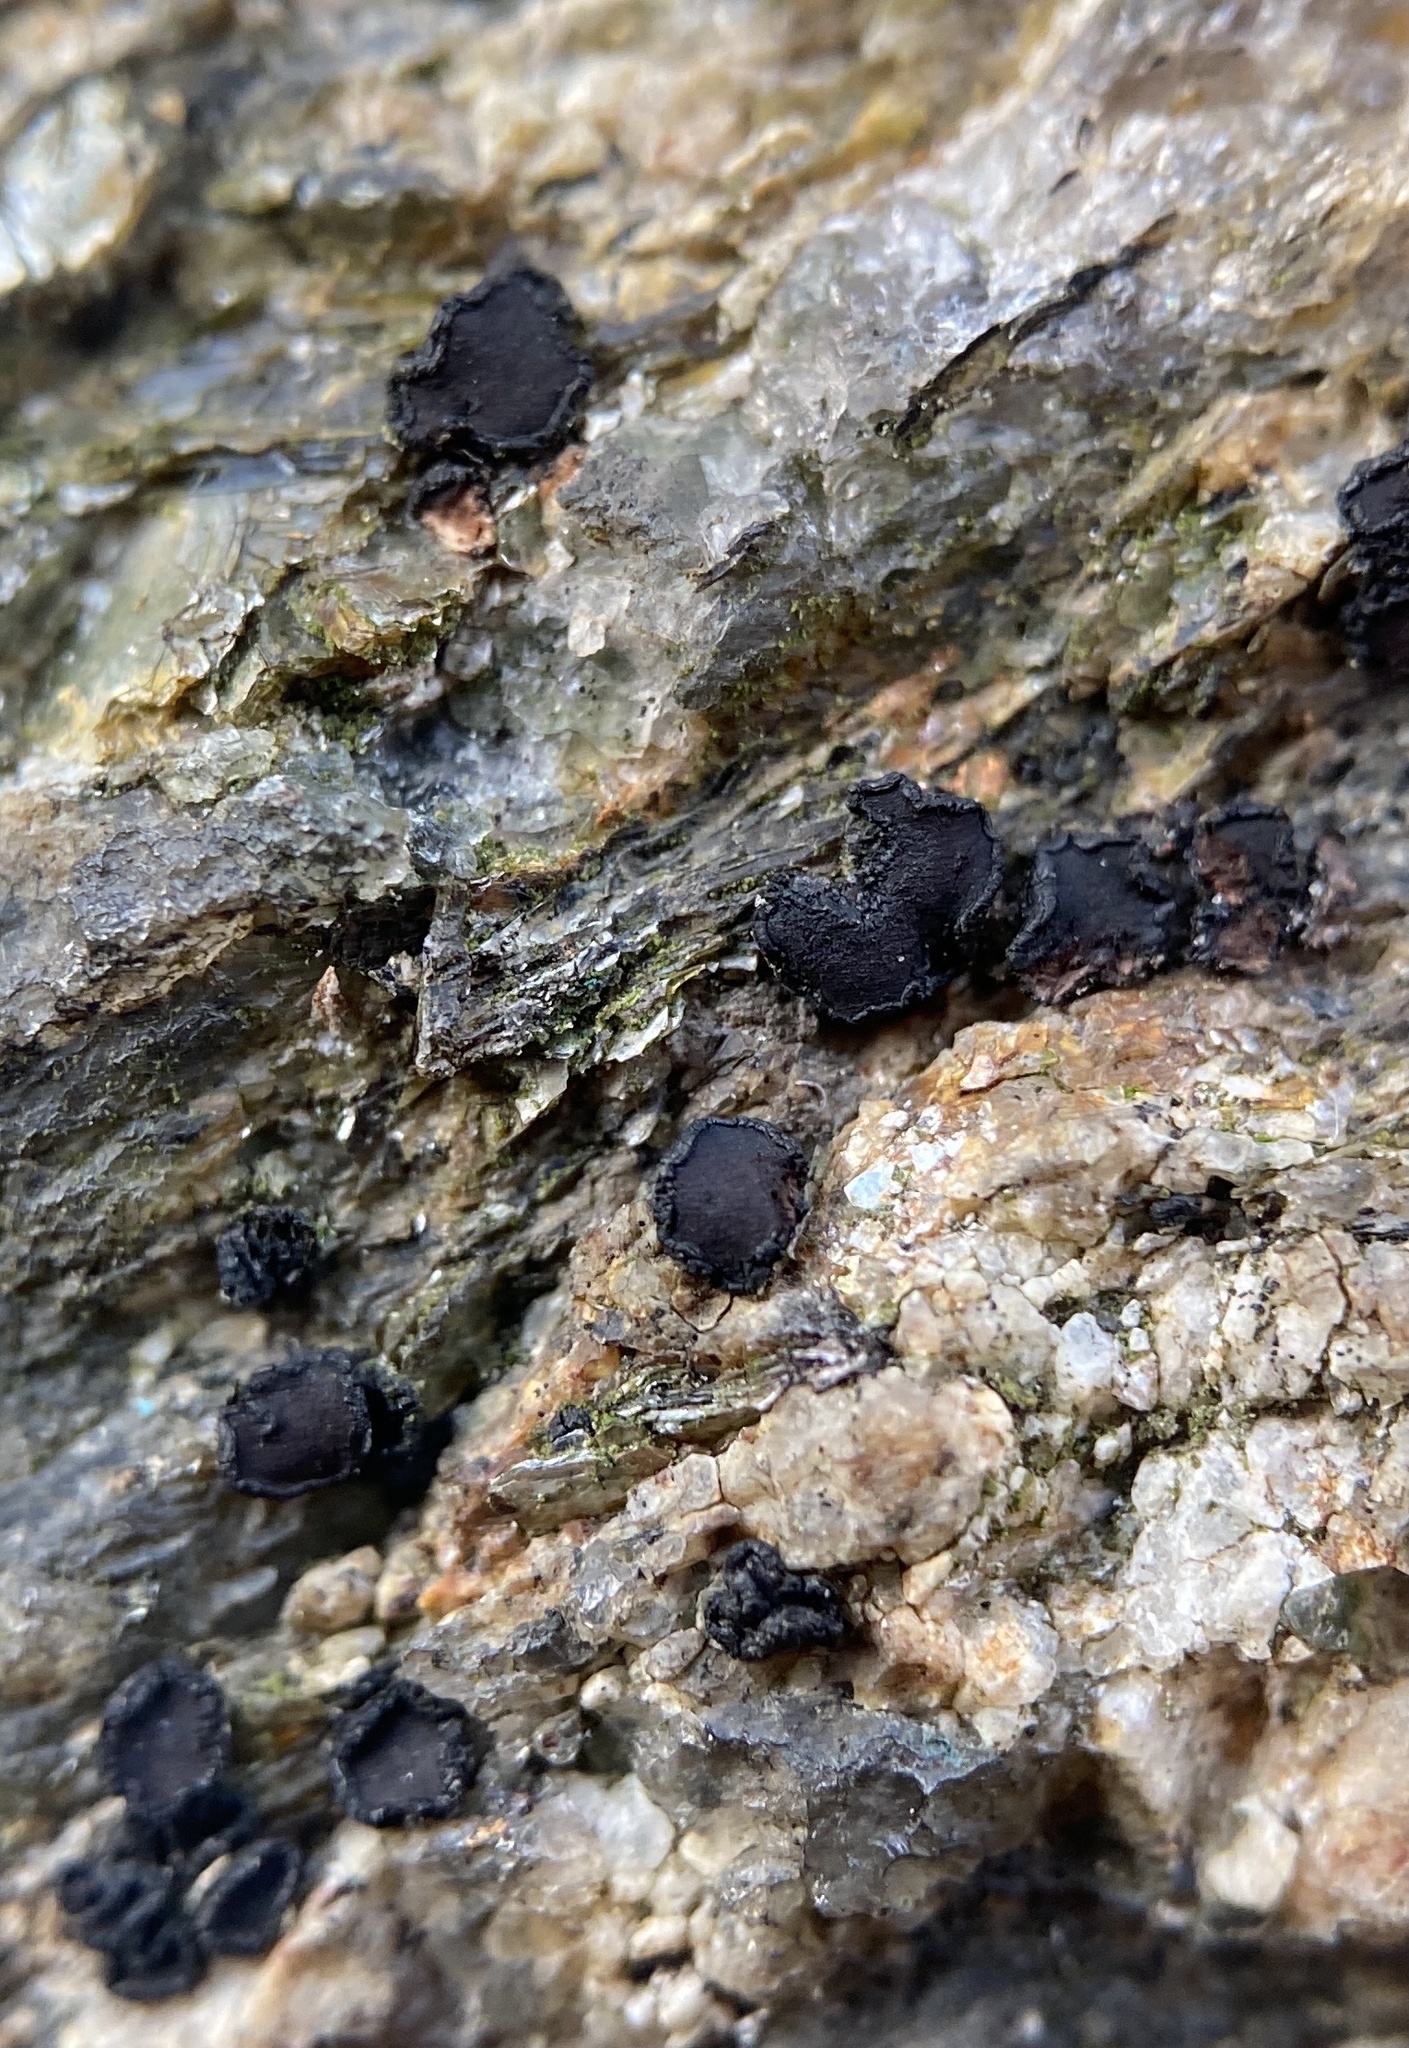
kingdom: Fungi
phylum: Ascomycota
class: Lecanoromycetes
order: Acarosporales
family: Acarosporaceae
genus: Sarcogyne
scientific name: Sarcogyne clavus
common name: Club grain-spored lichen
